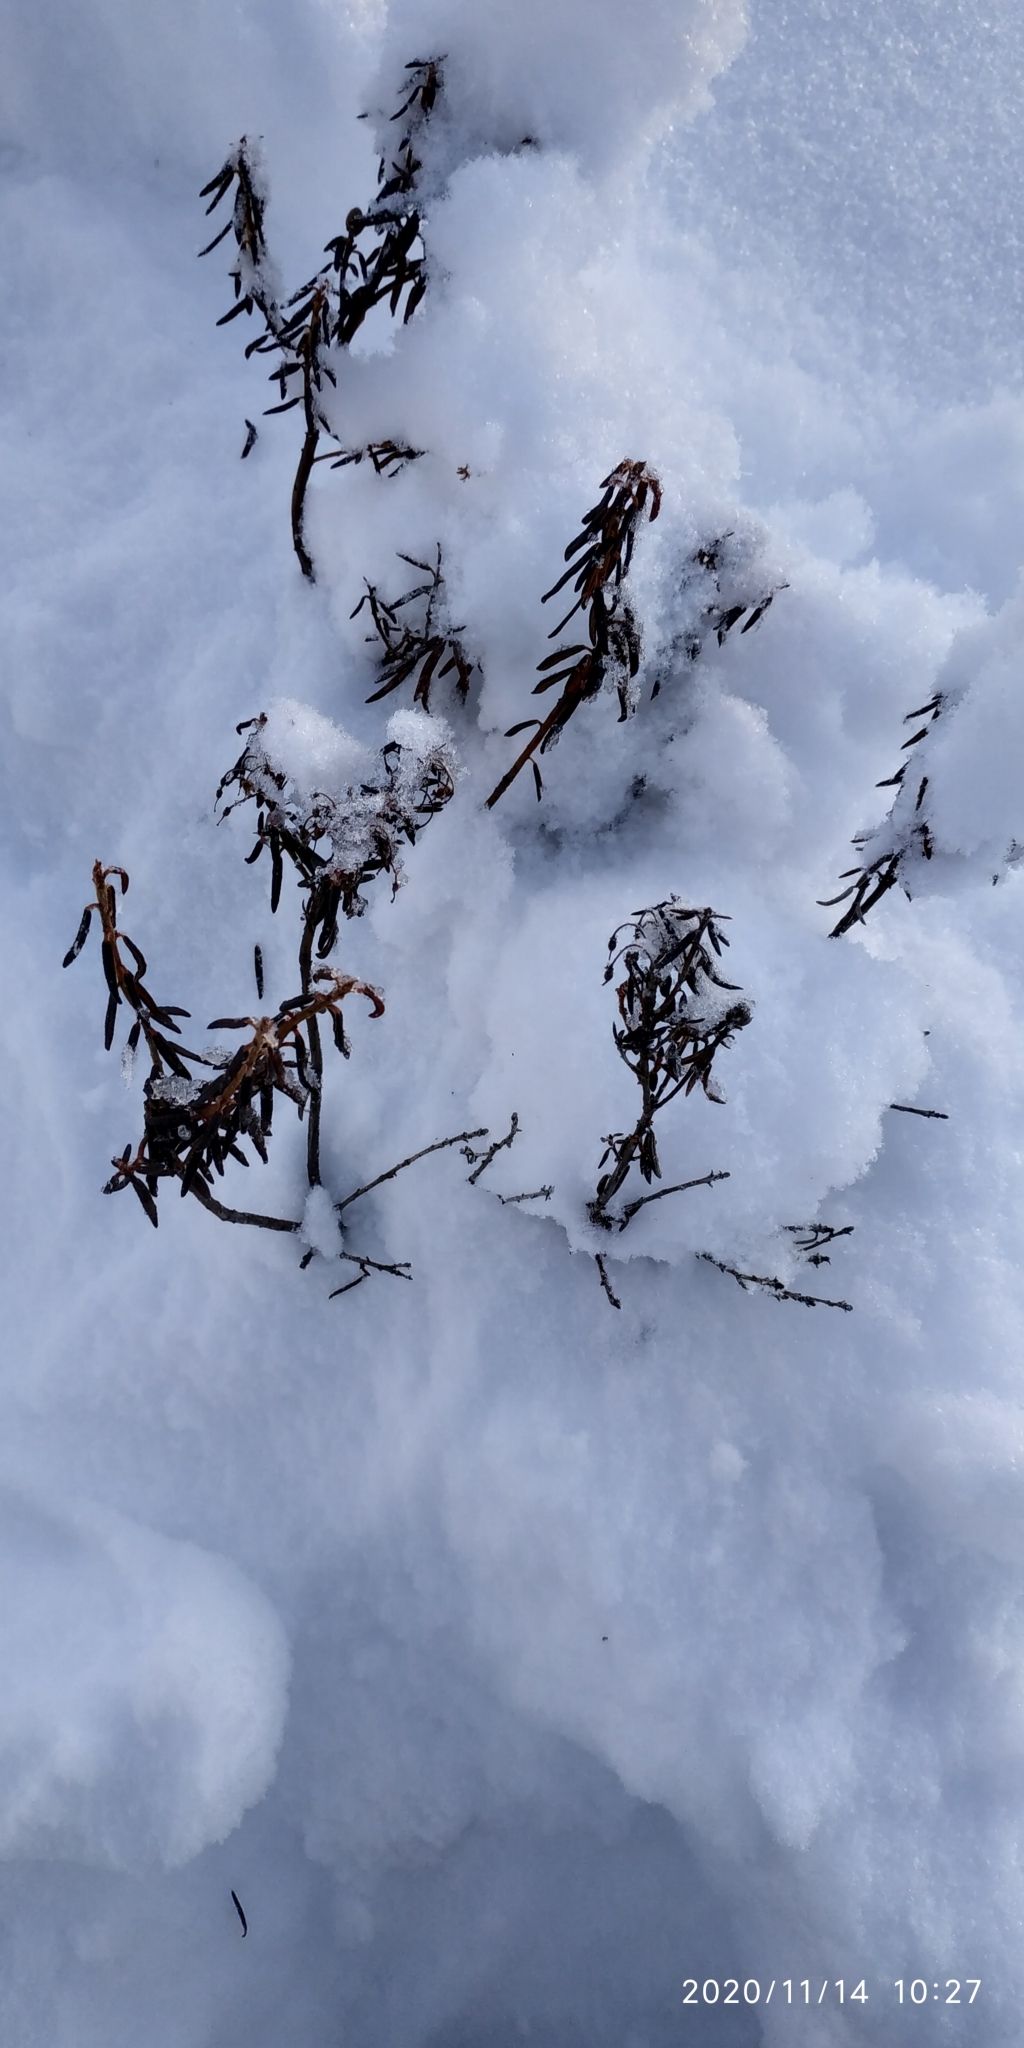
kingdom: Plantae
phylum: Tracheophyta
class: Magnoliopsida
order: Ericales
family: Ericaceae
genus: Rhododendron
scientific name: Rhododendron tomentosum
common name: Marsh labrador tea
